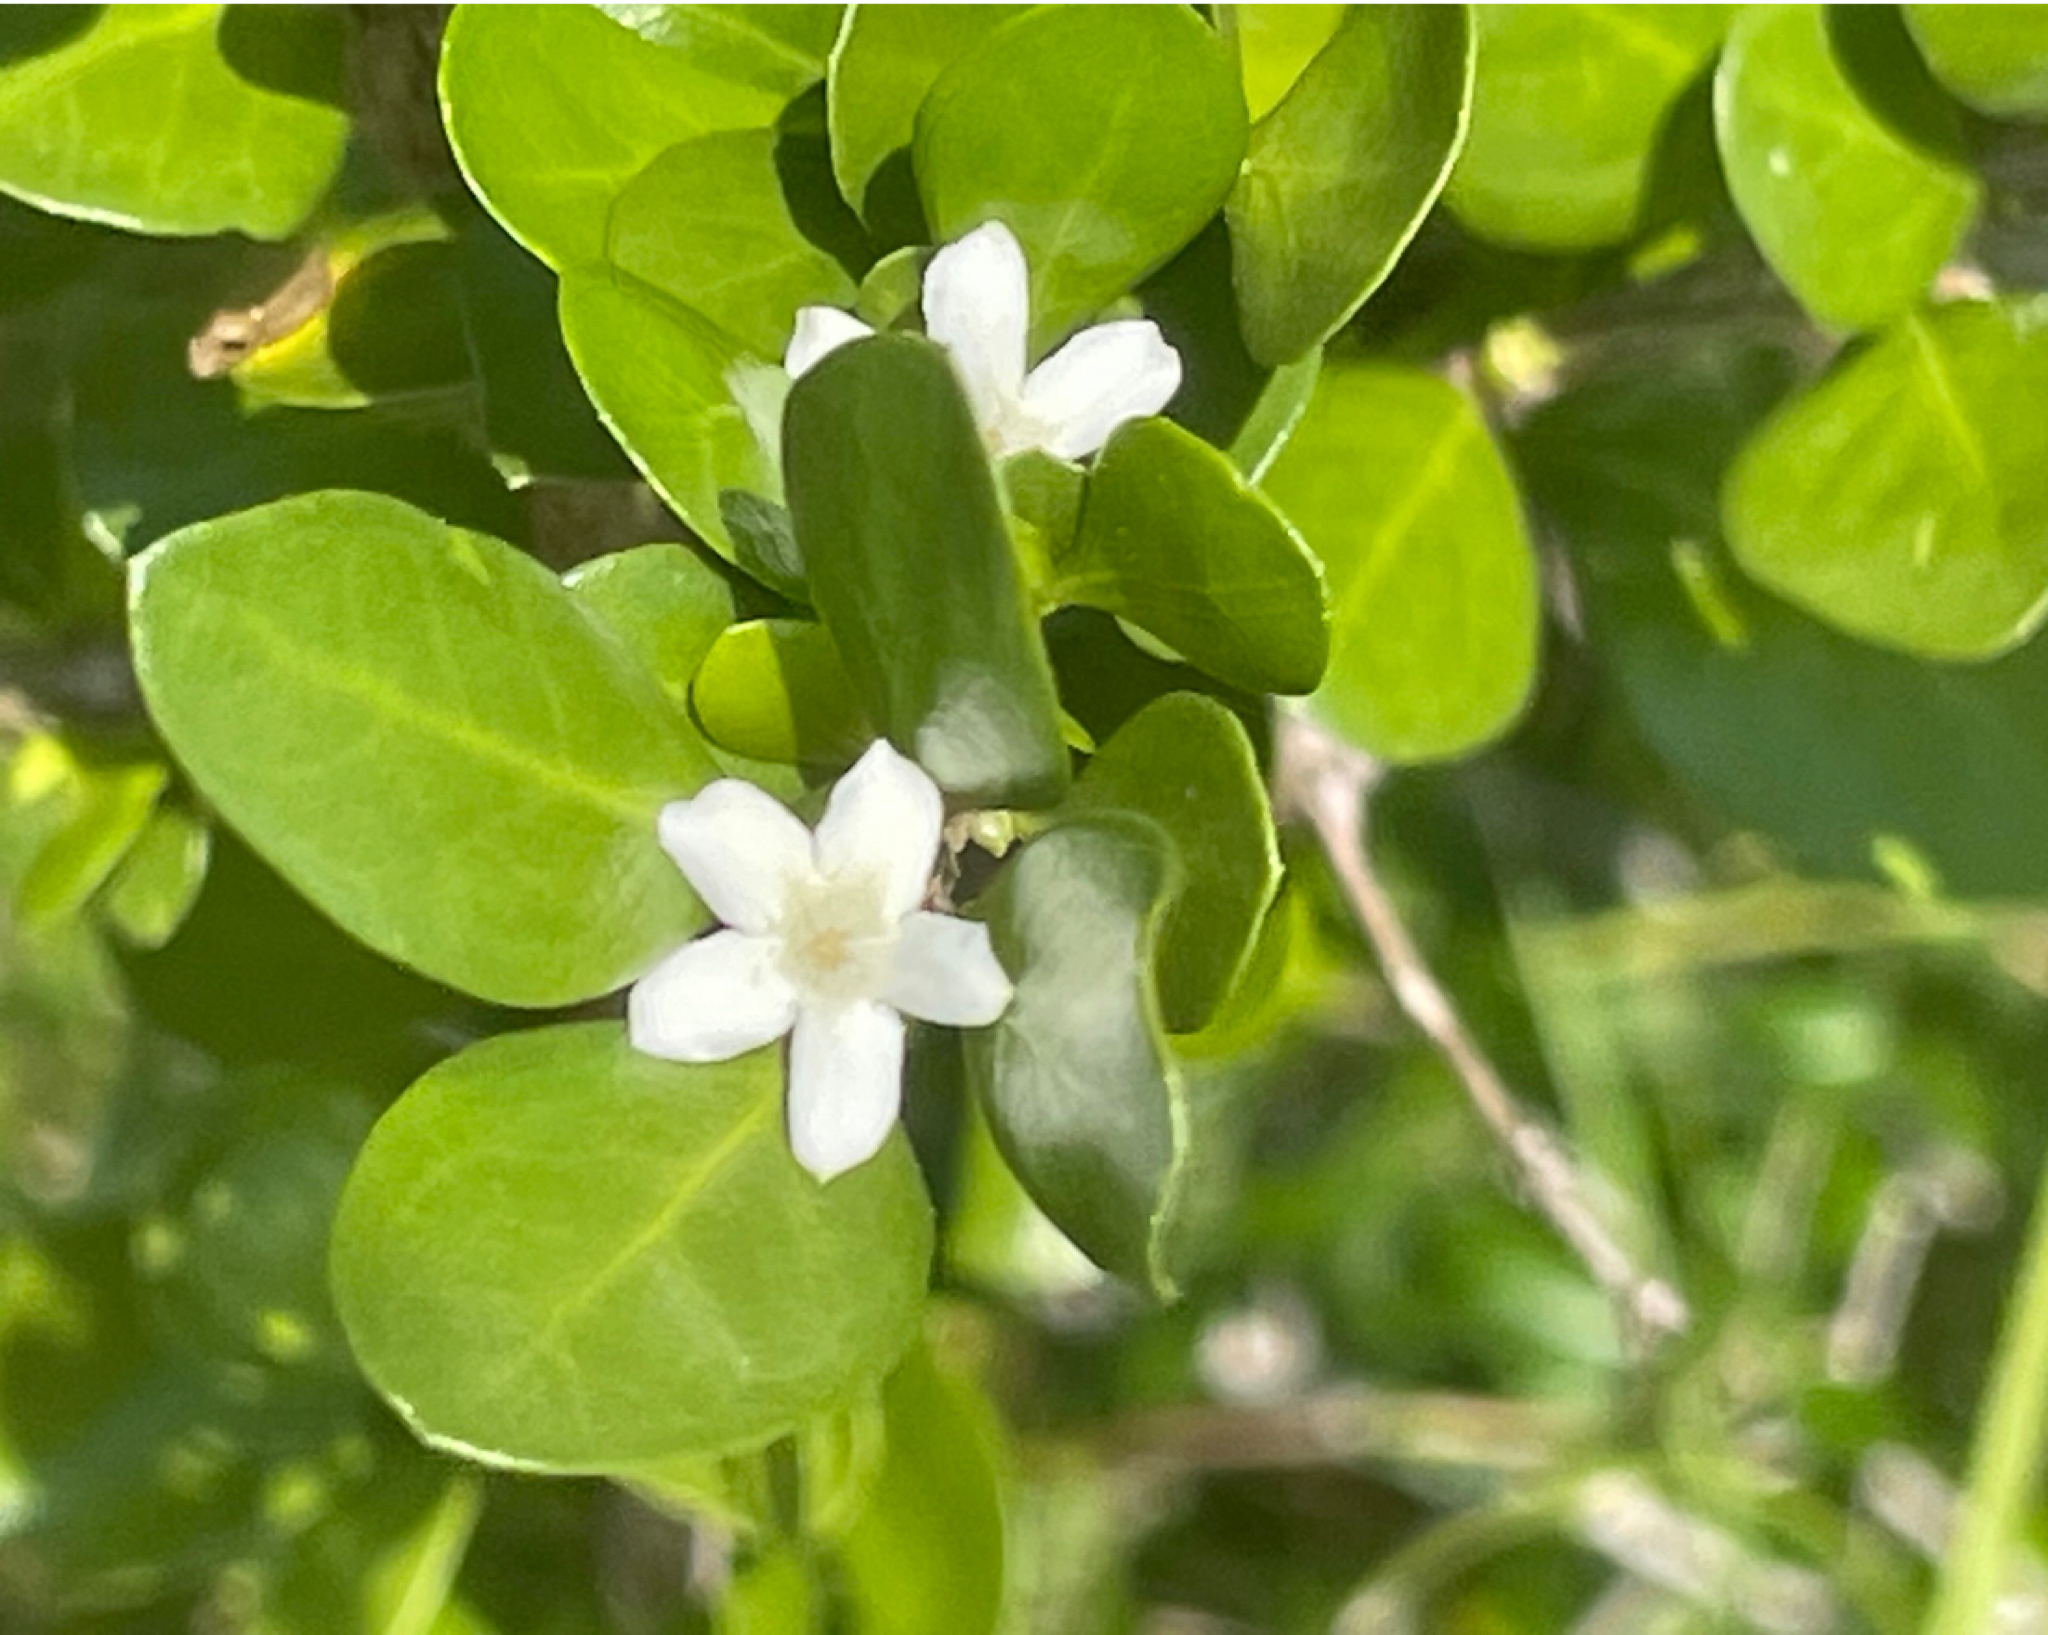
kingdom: Plantae
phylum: Tracheophyta
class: Magnoliopsida
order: Gentianales
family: Rubiaceae
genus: Randia
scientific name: Randia aculeata
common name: Inkberry
